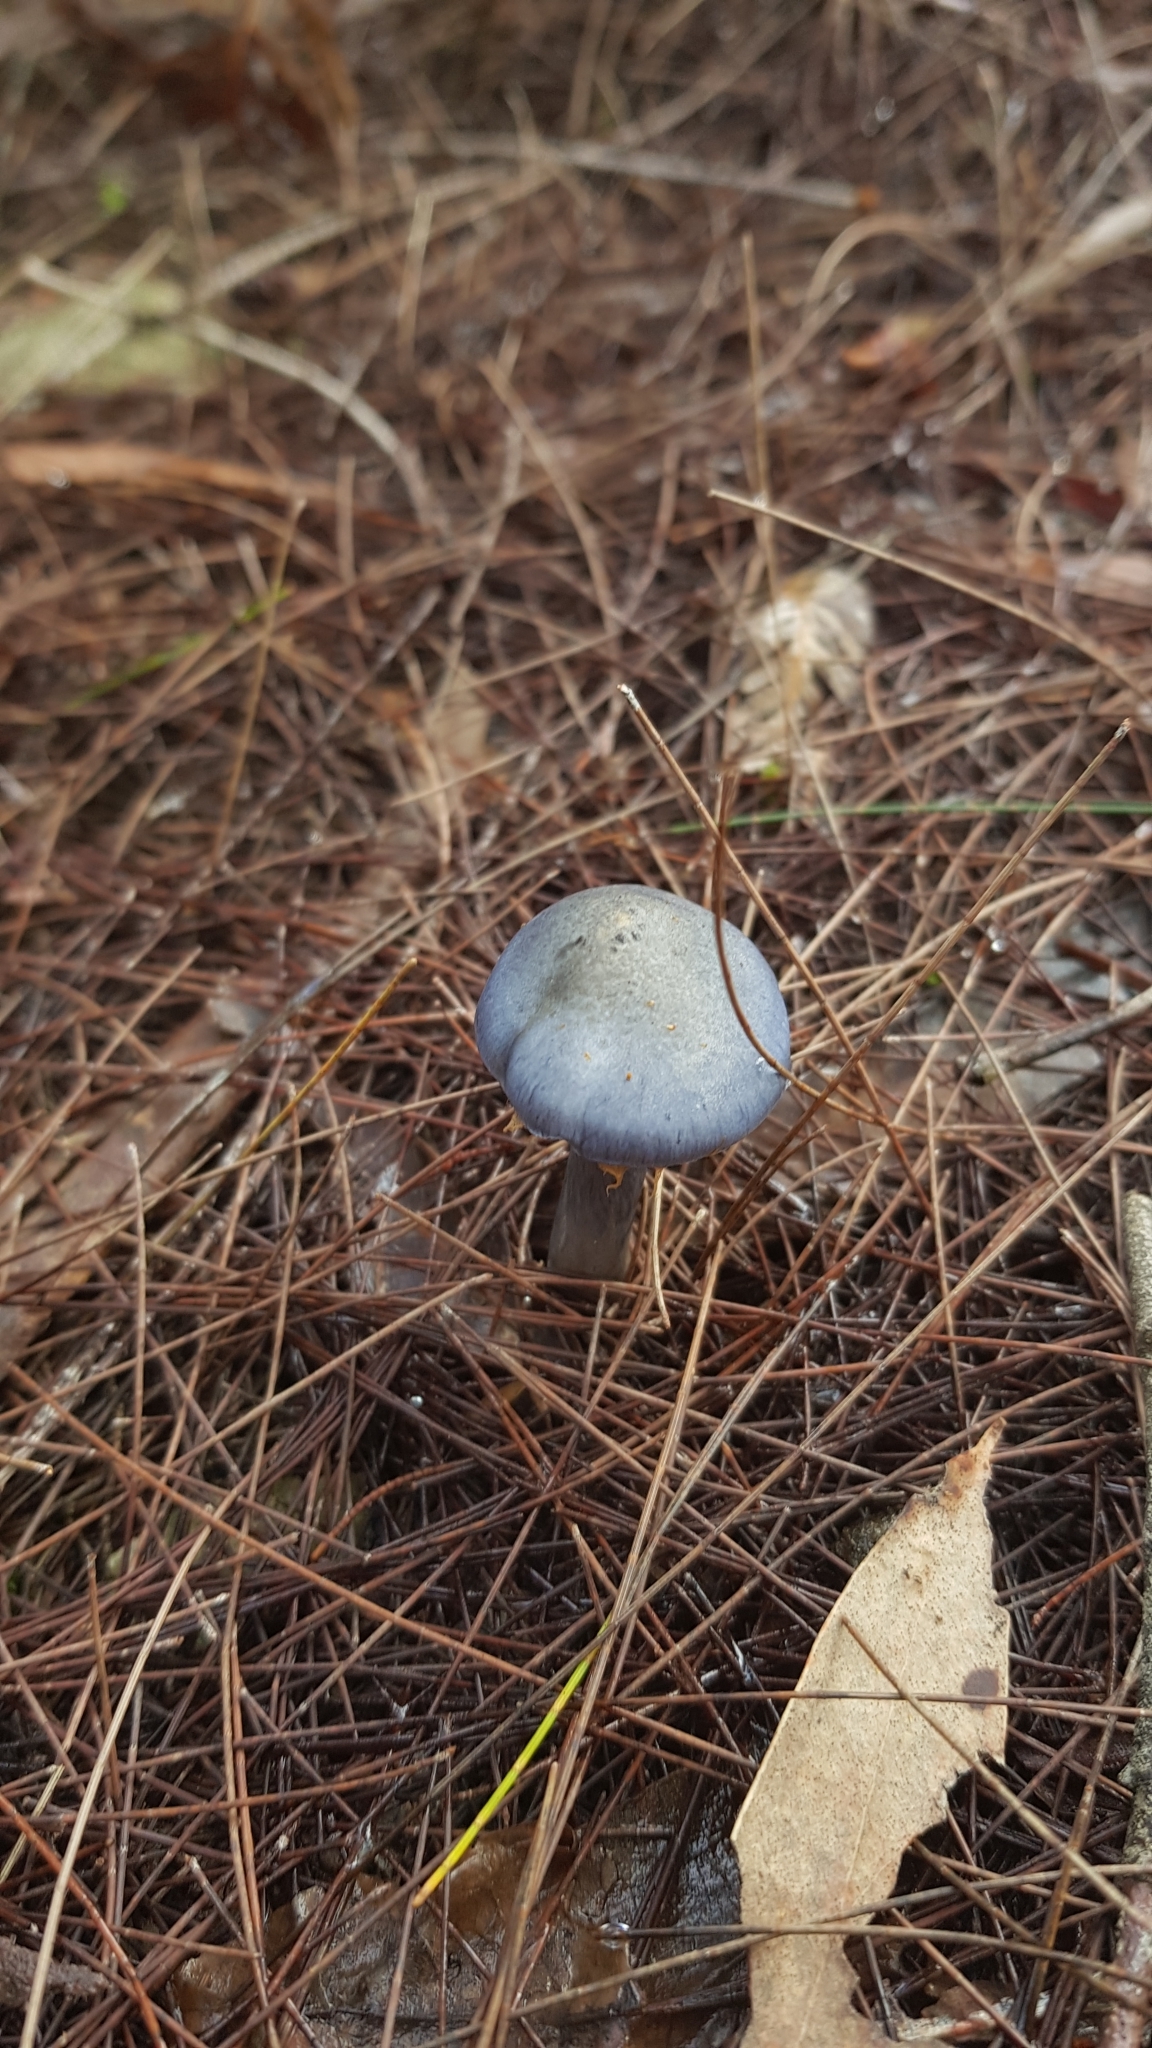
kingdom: Fungi
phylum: Basidiomycota
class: Agaricomycetes
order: Agaricales
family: Cortinariaceae
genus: Cortinarius
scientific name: Cortinarius rotundisporus
